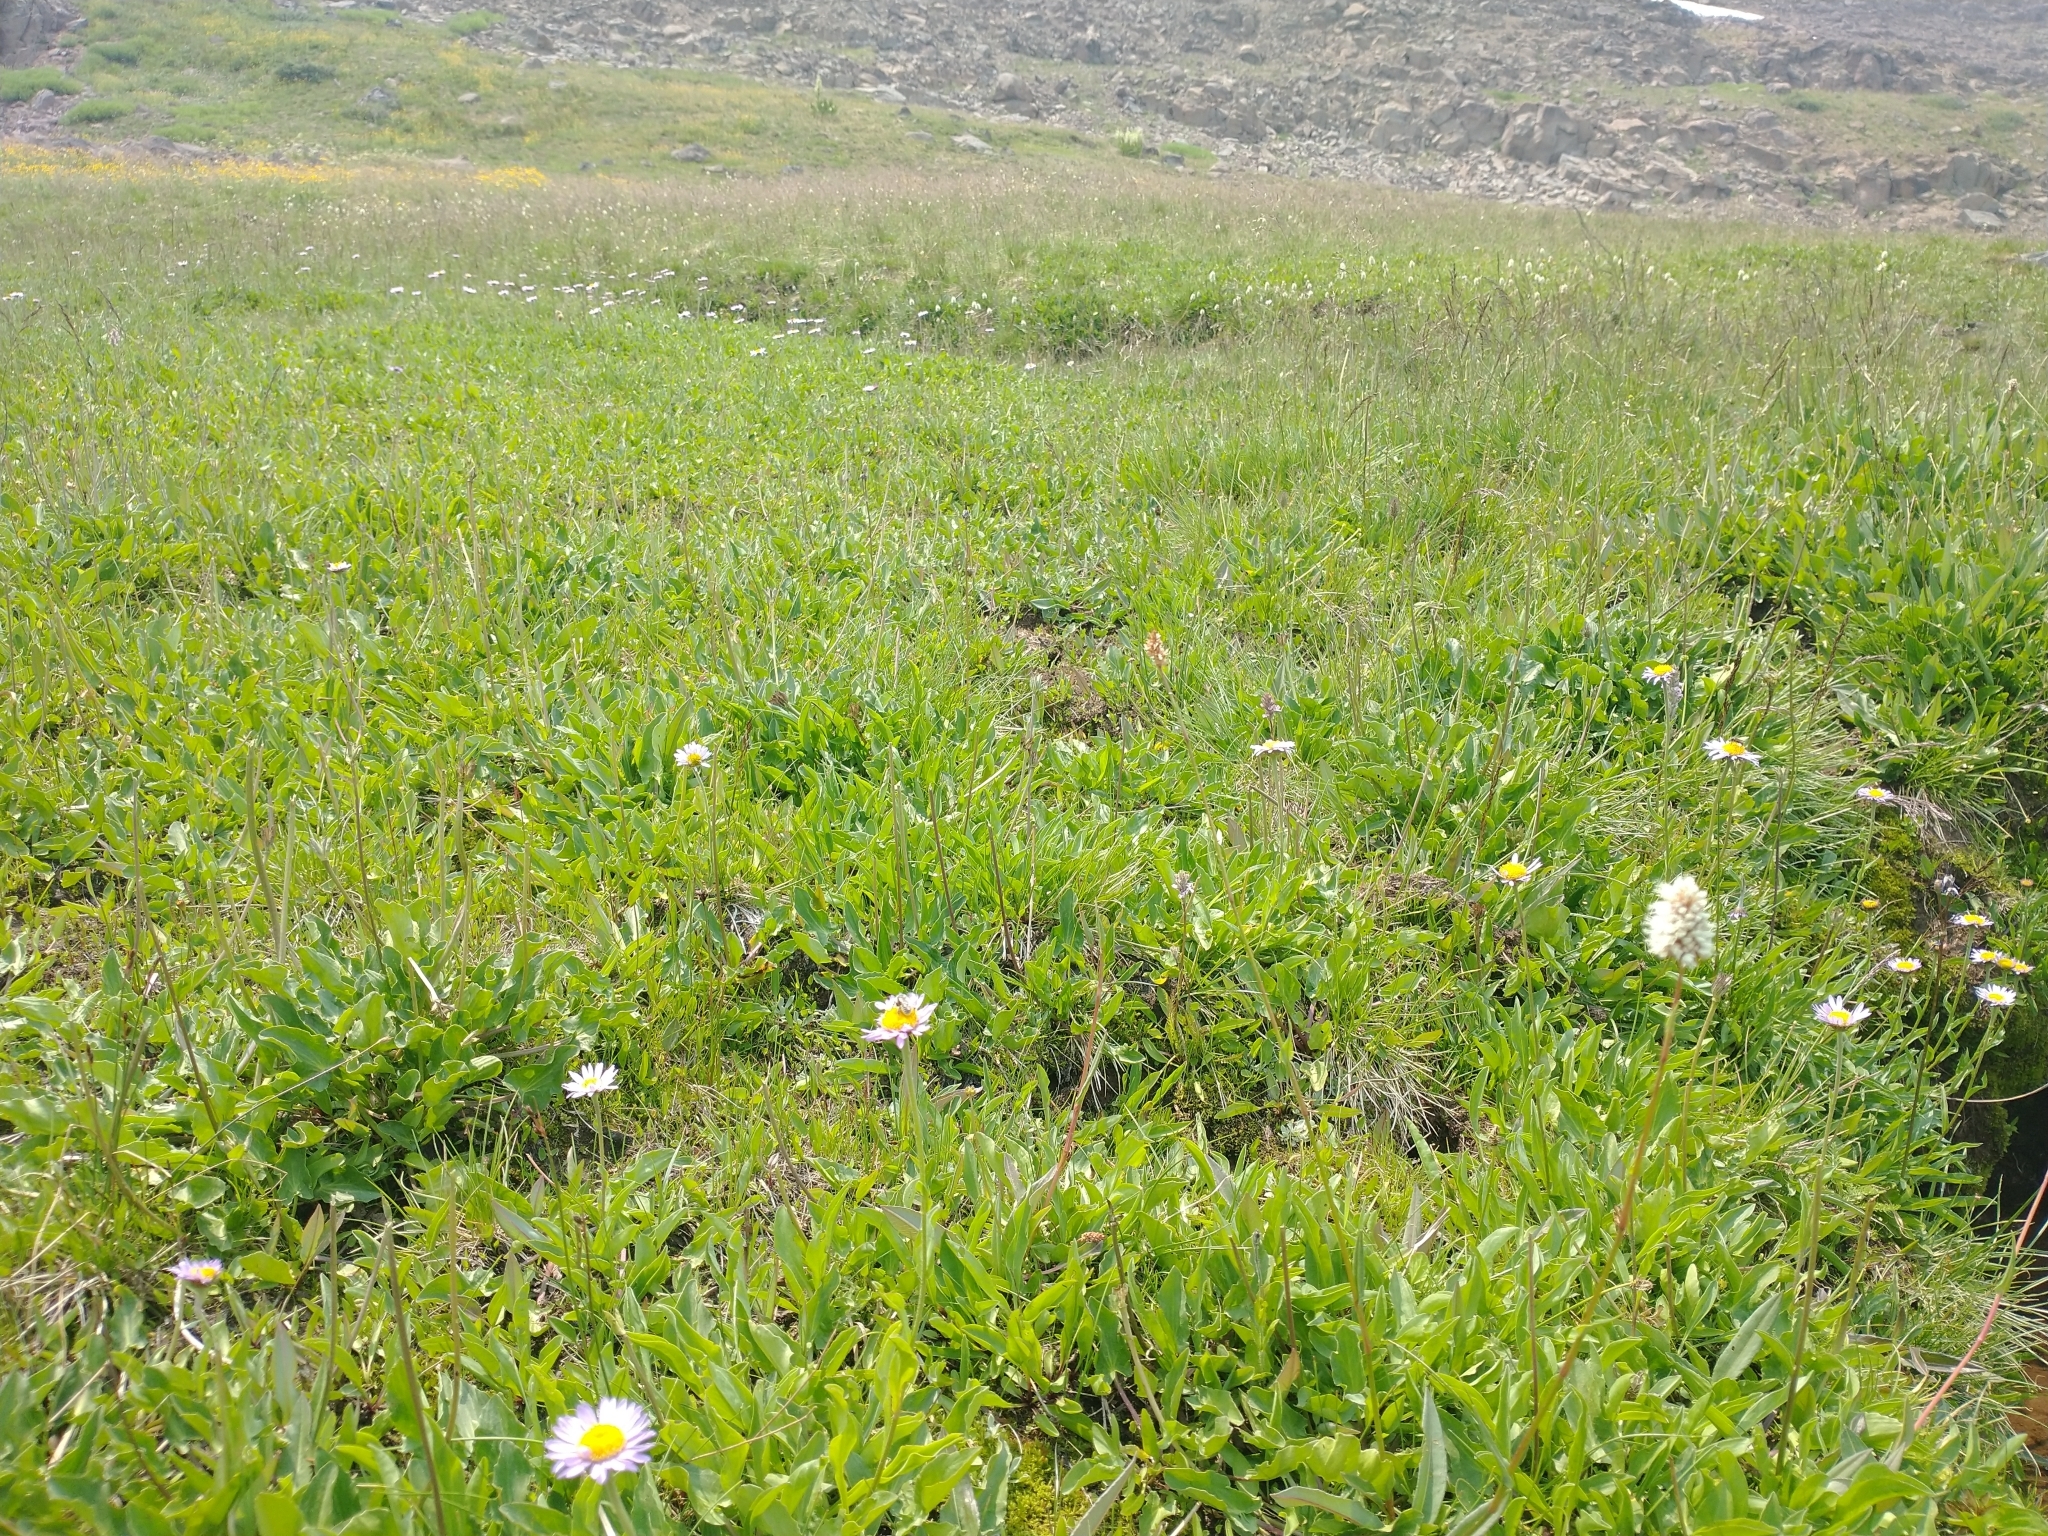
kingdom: Plantae
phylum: Tracheophyta
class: Magnoliopsida
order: Caryophyllales
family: Polygonaceae
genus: Bistorta
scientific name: Bistorta bistortoides
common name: American bistort
